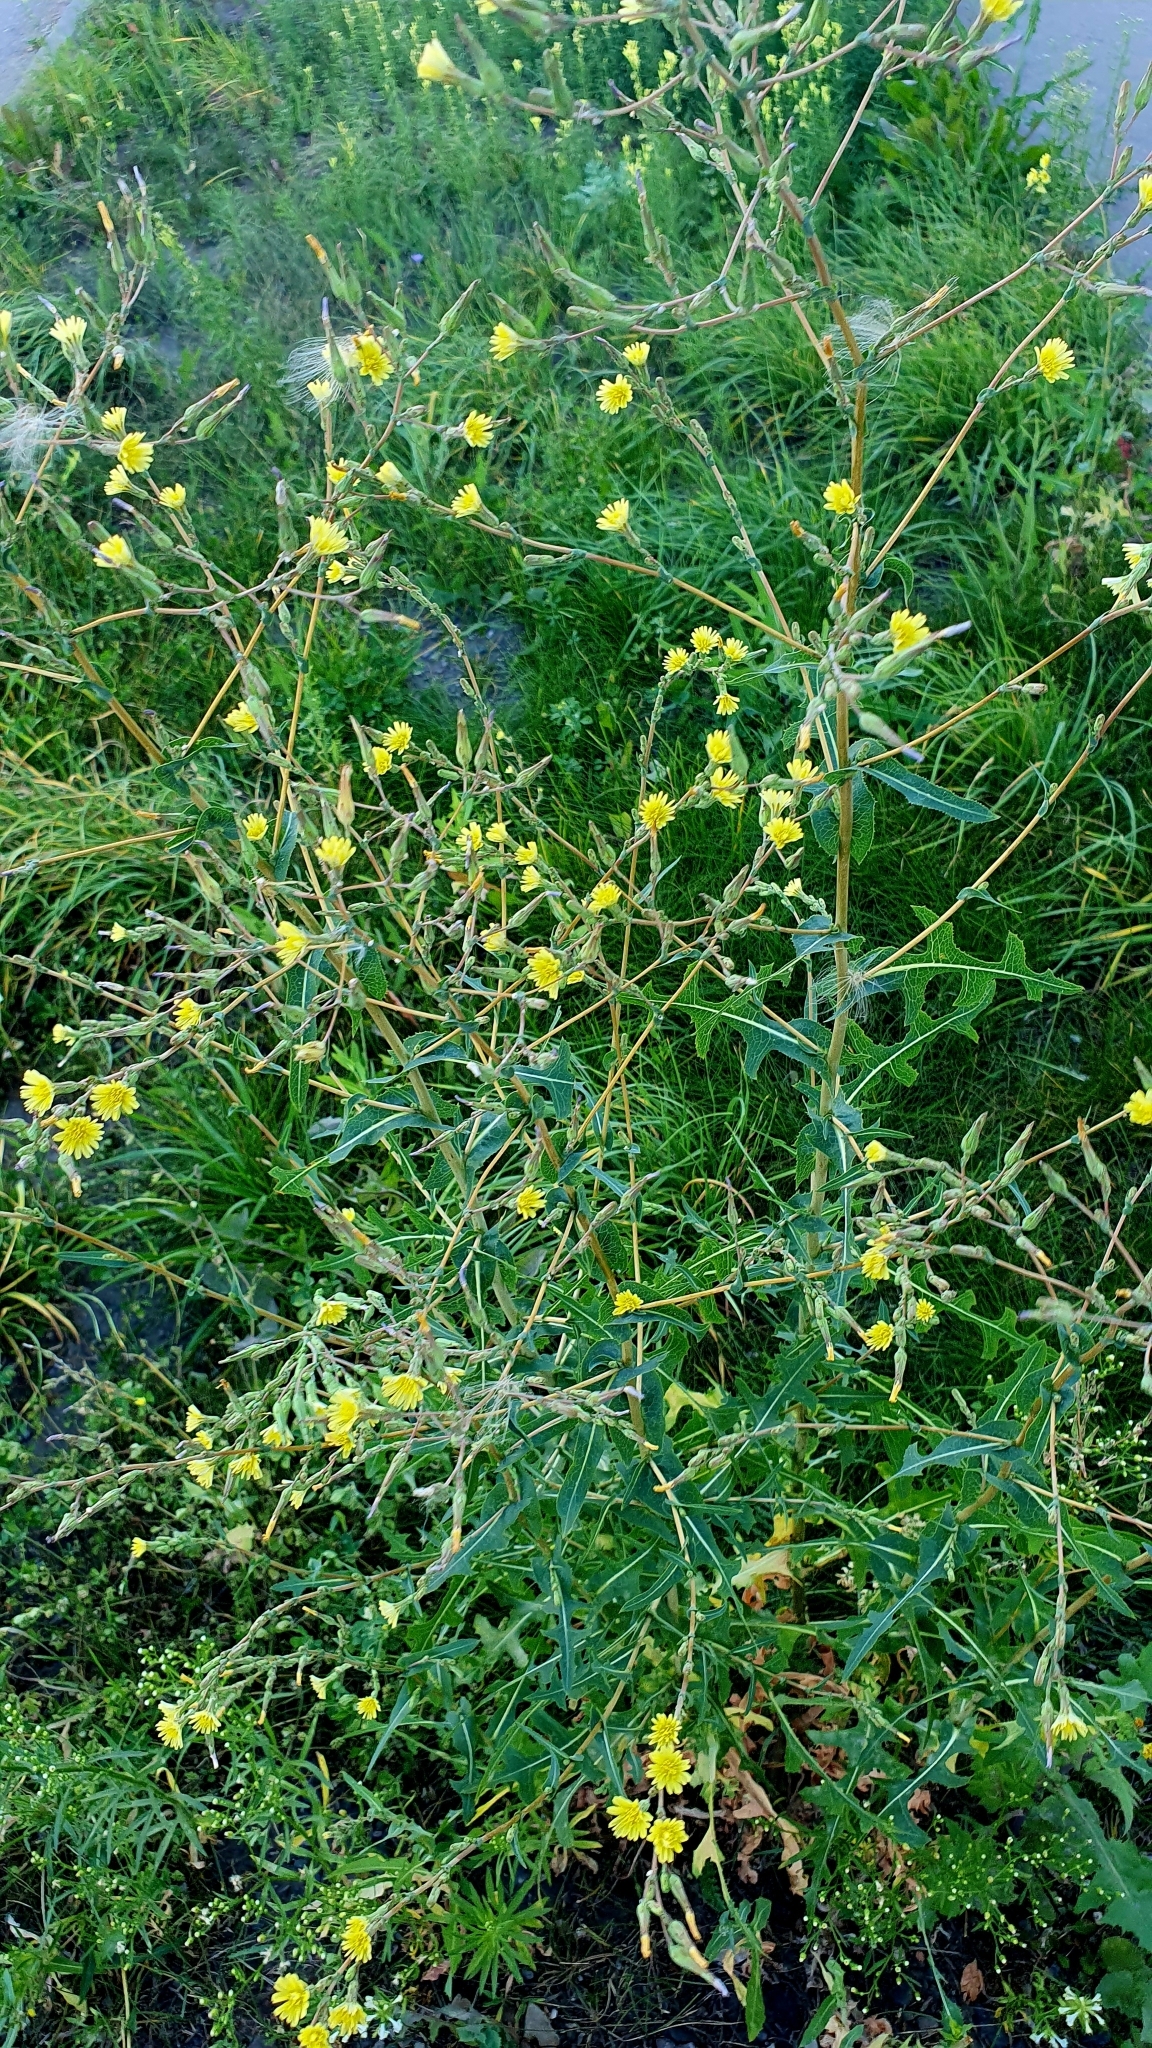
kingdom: Plantae
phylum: Tracheophyta
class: Magnoliopsida
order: Asterales
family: Asteraceae
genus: Lactuca
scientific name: Lactuca serriola
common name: Prickly lettuce
